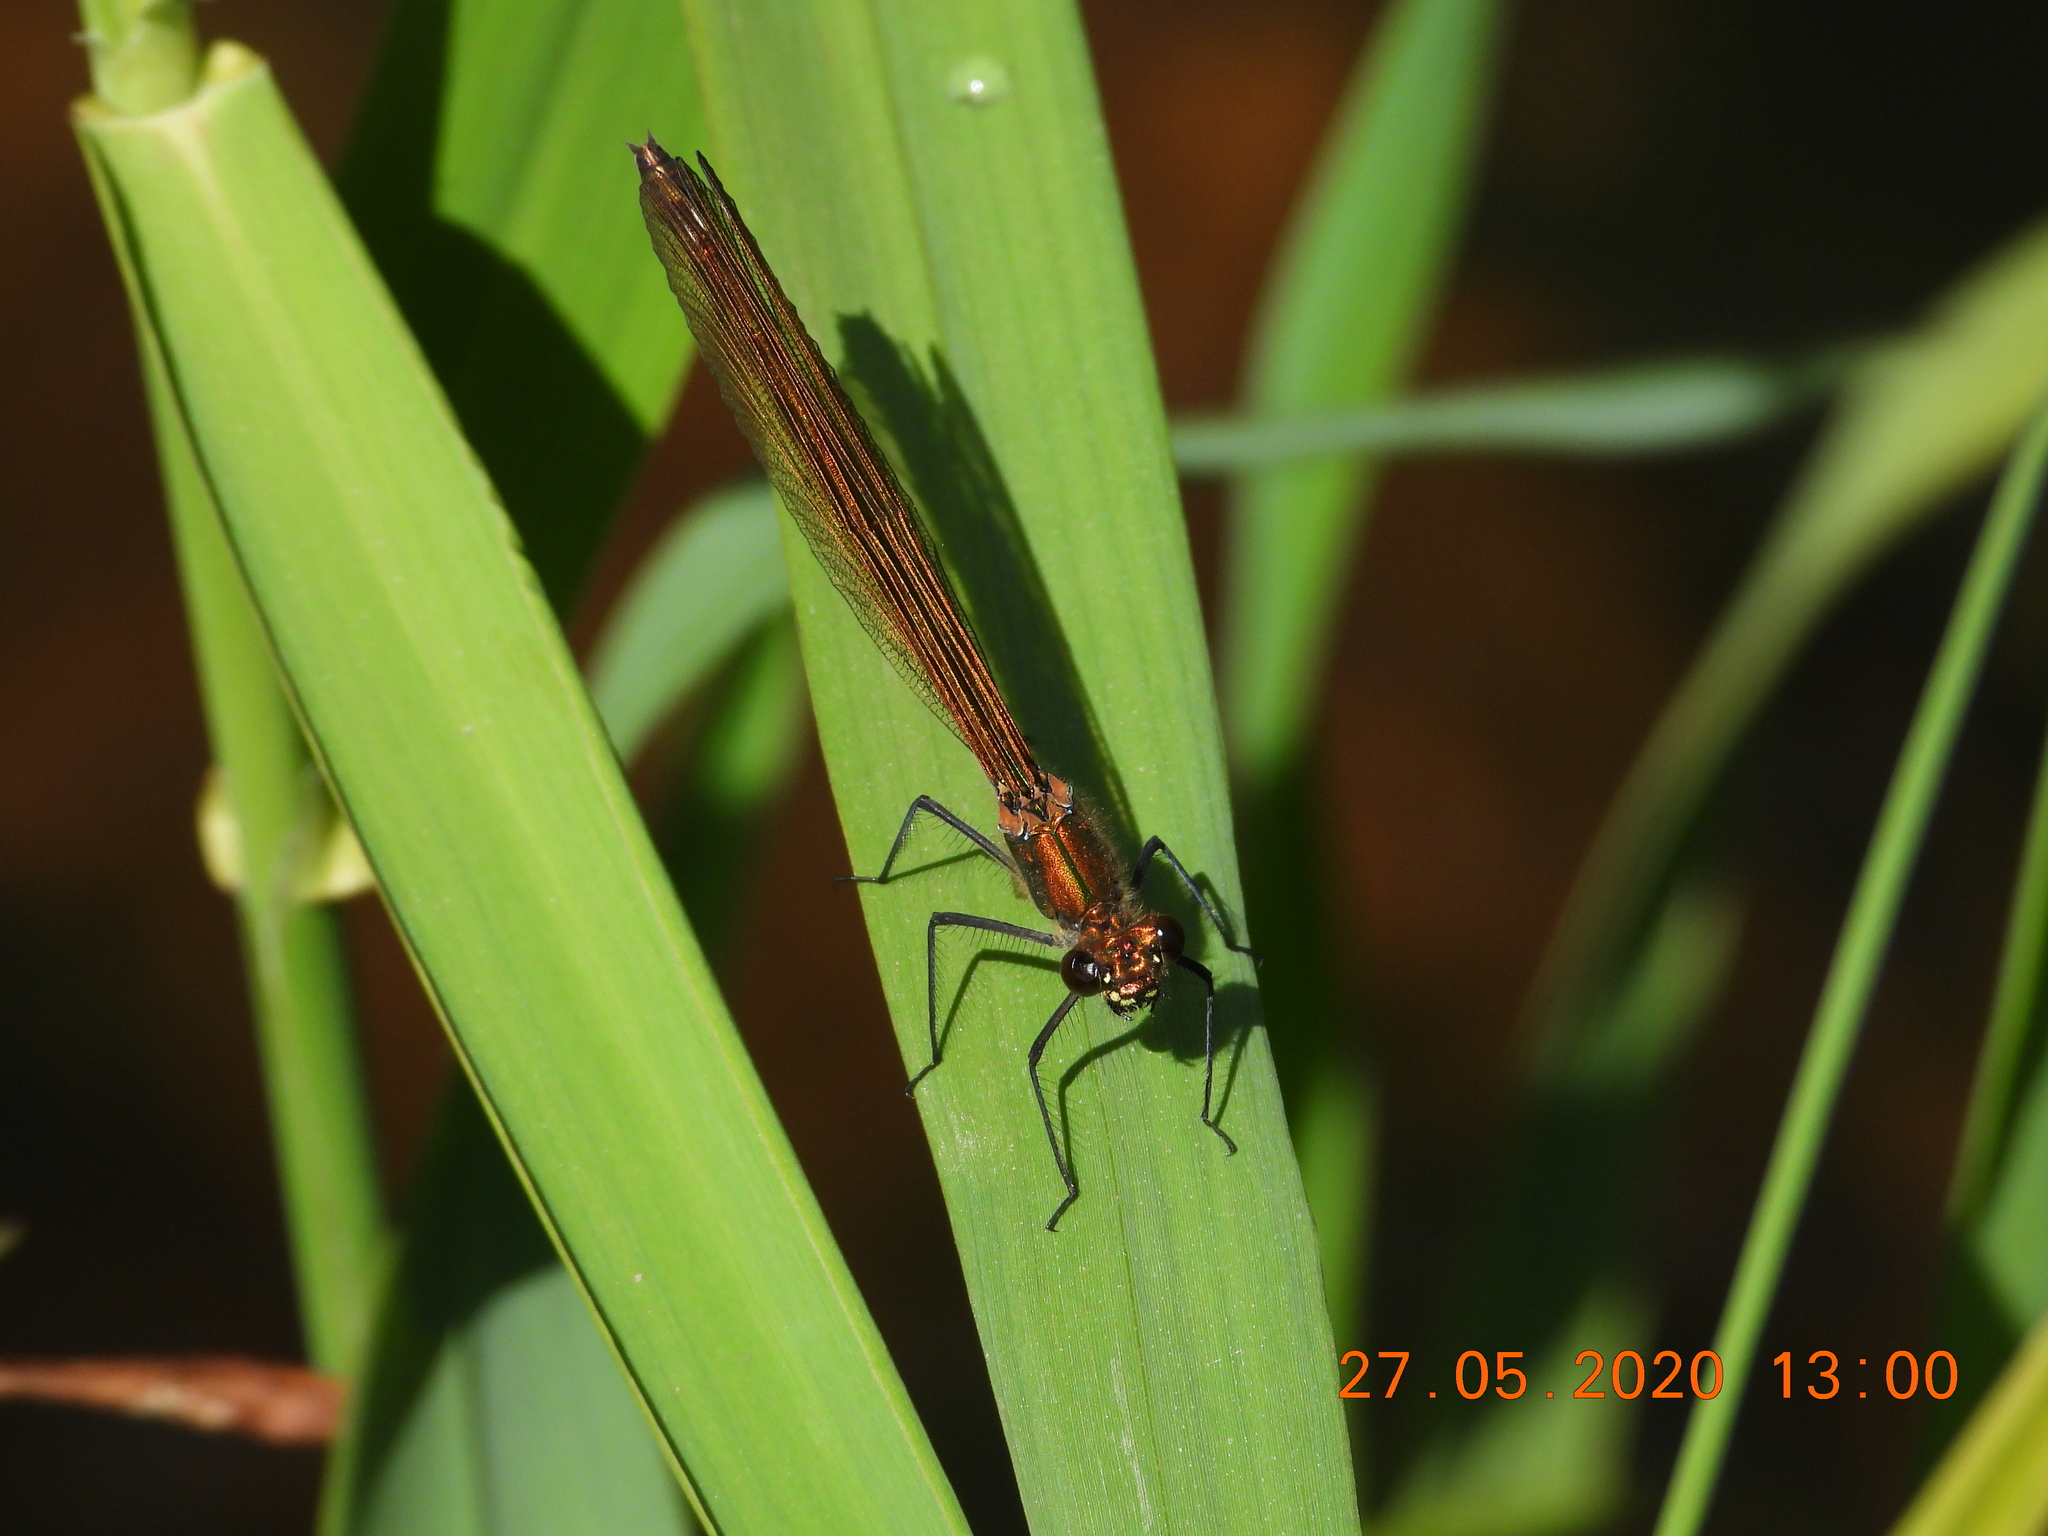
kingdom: Animalia
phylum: Arthropoda
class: Insecta
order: Odonata
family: Calopterygidae
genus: Calopteryx
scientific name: Calopteryx splendens
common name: Banded demoiselle
